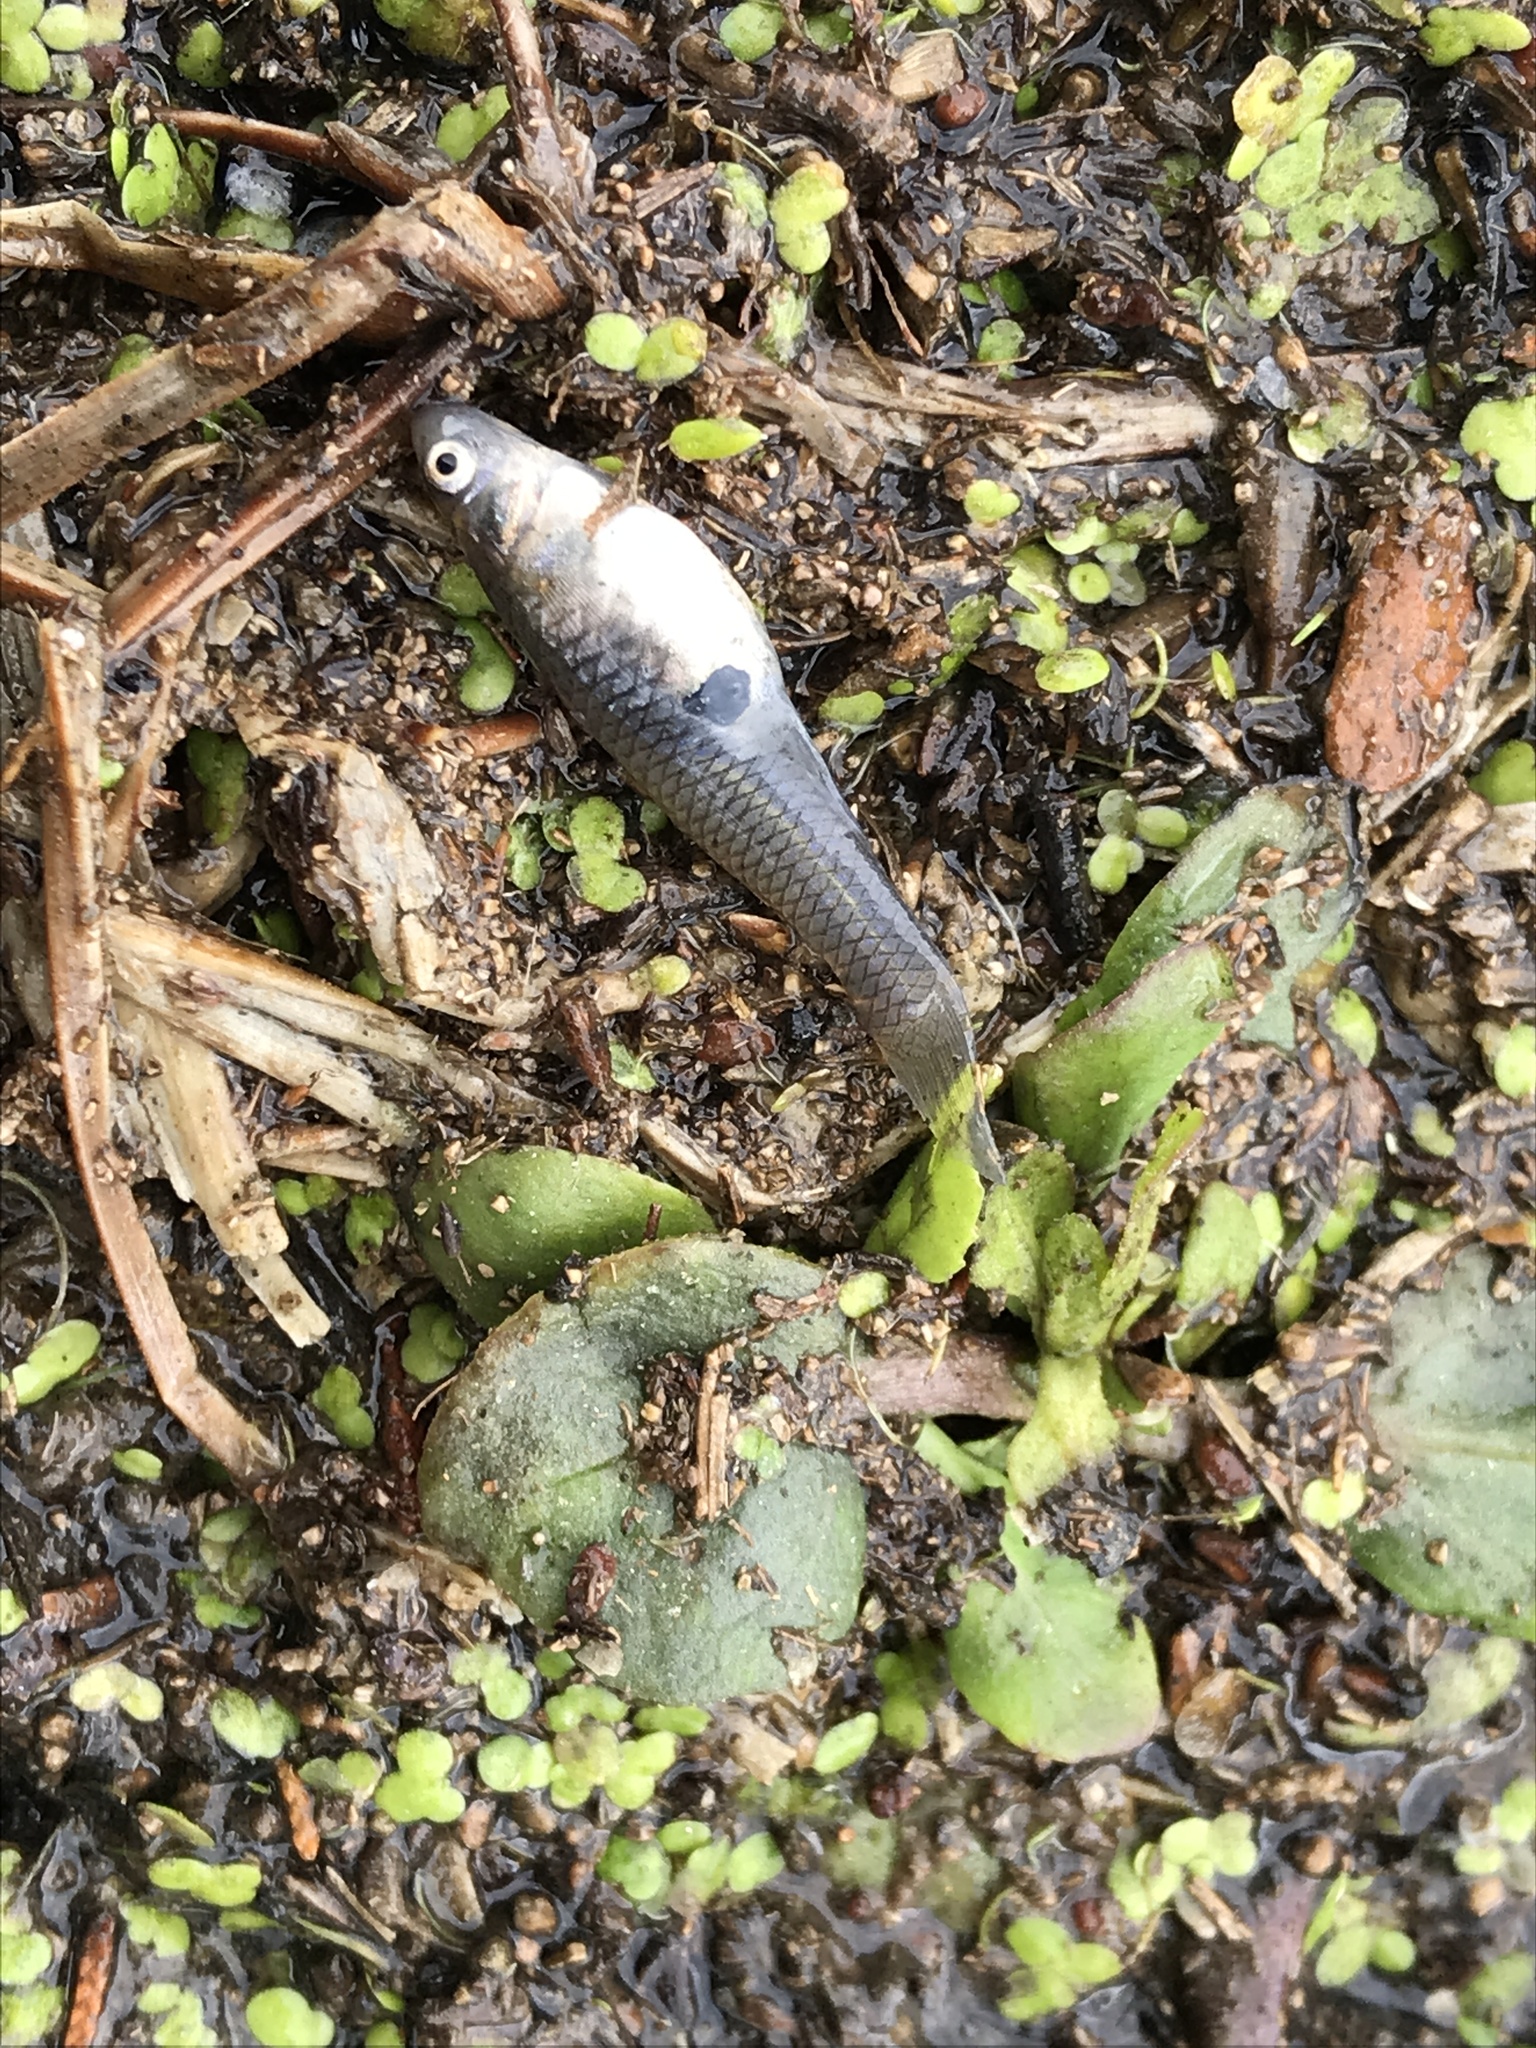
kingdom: Animalia
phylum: Chordata
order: Cyprinodontiformes
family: Poeciliidae
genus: Gambusia
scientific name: Gambusia affinis
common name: Mosquitofish
